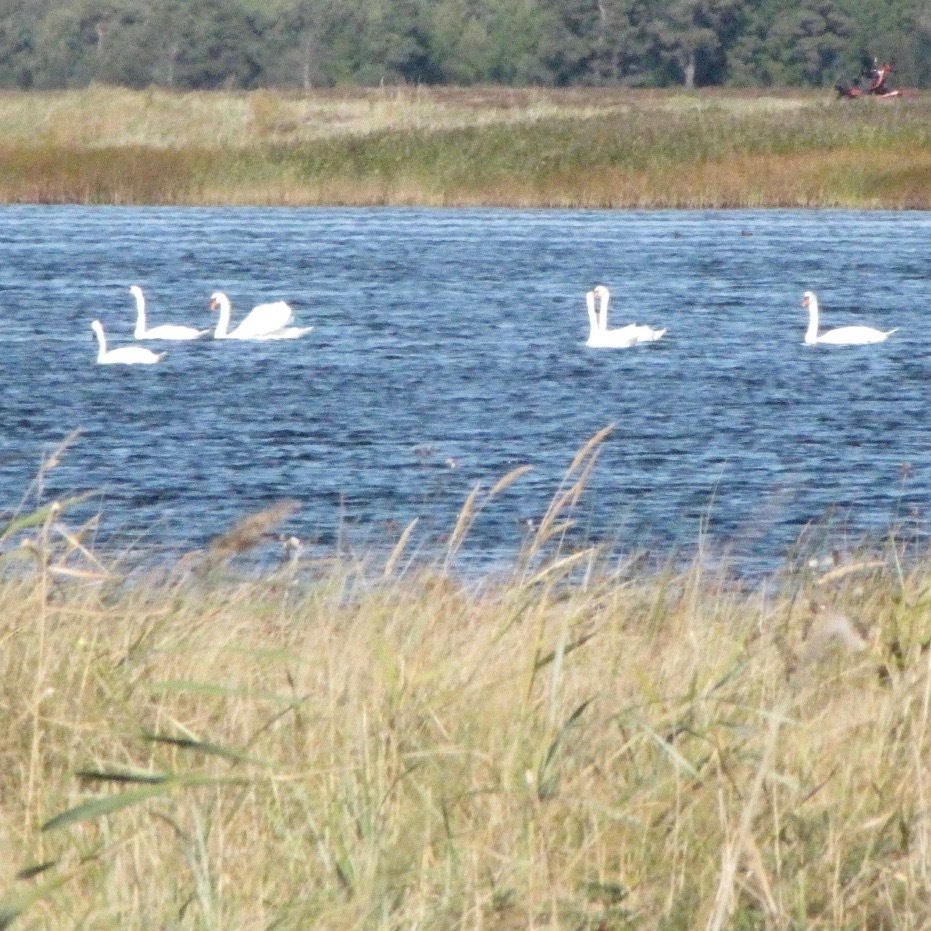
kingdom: Animalia
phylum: Chordata
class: Aves
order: Anseriformes
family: Anatidae
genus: Cygnus
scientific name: Cygnus olor
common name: Mute swan
